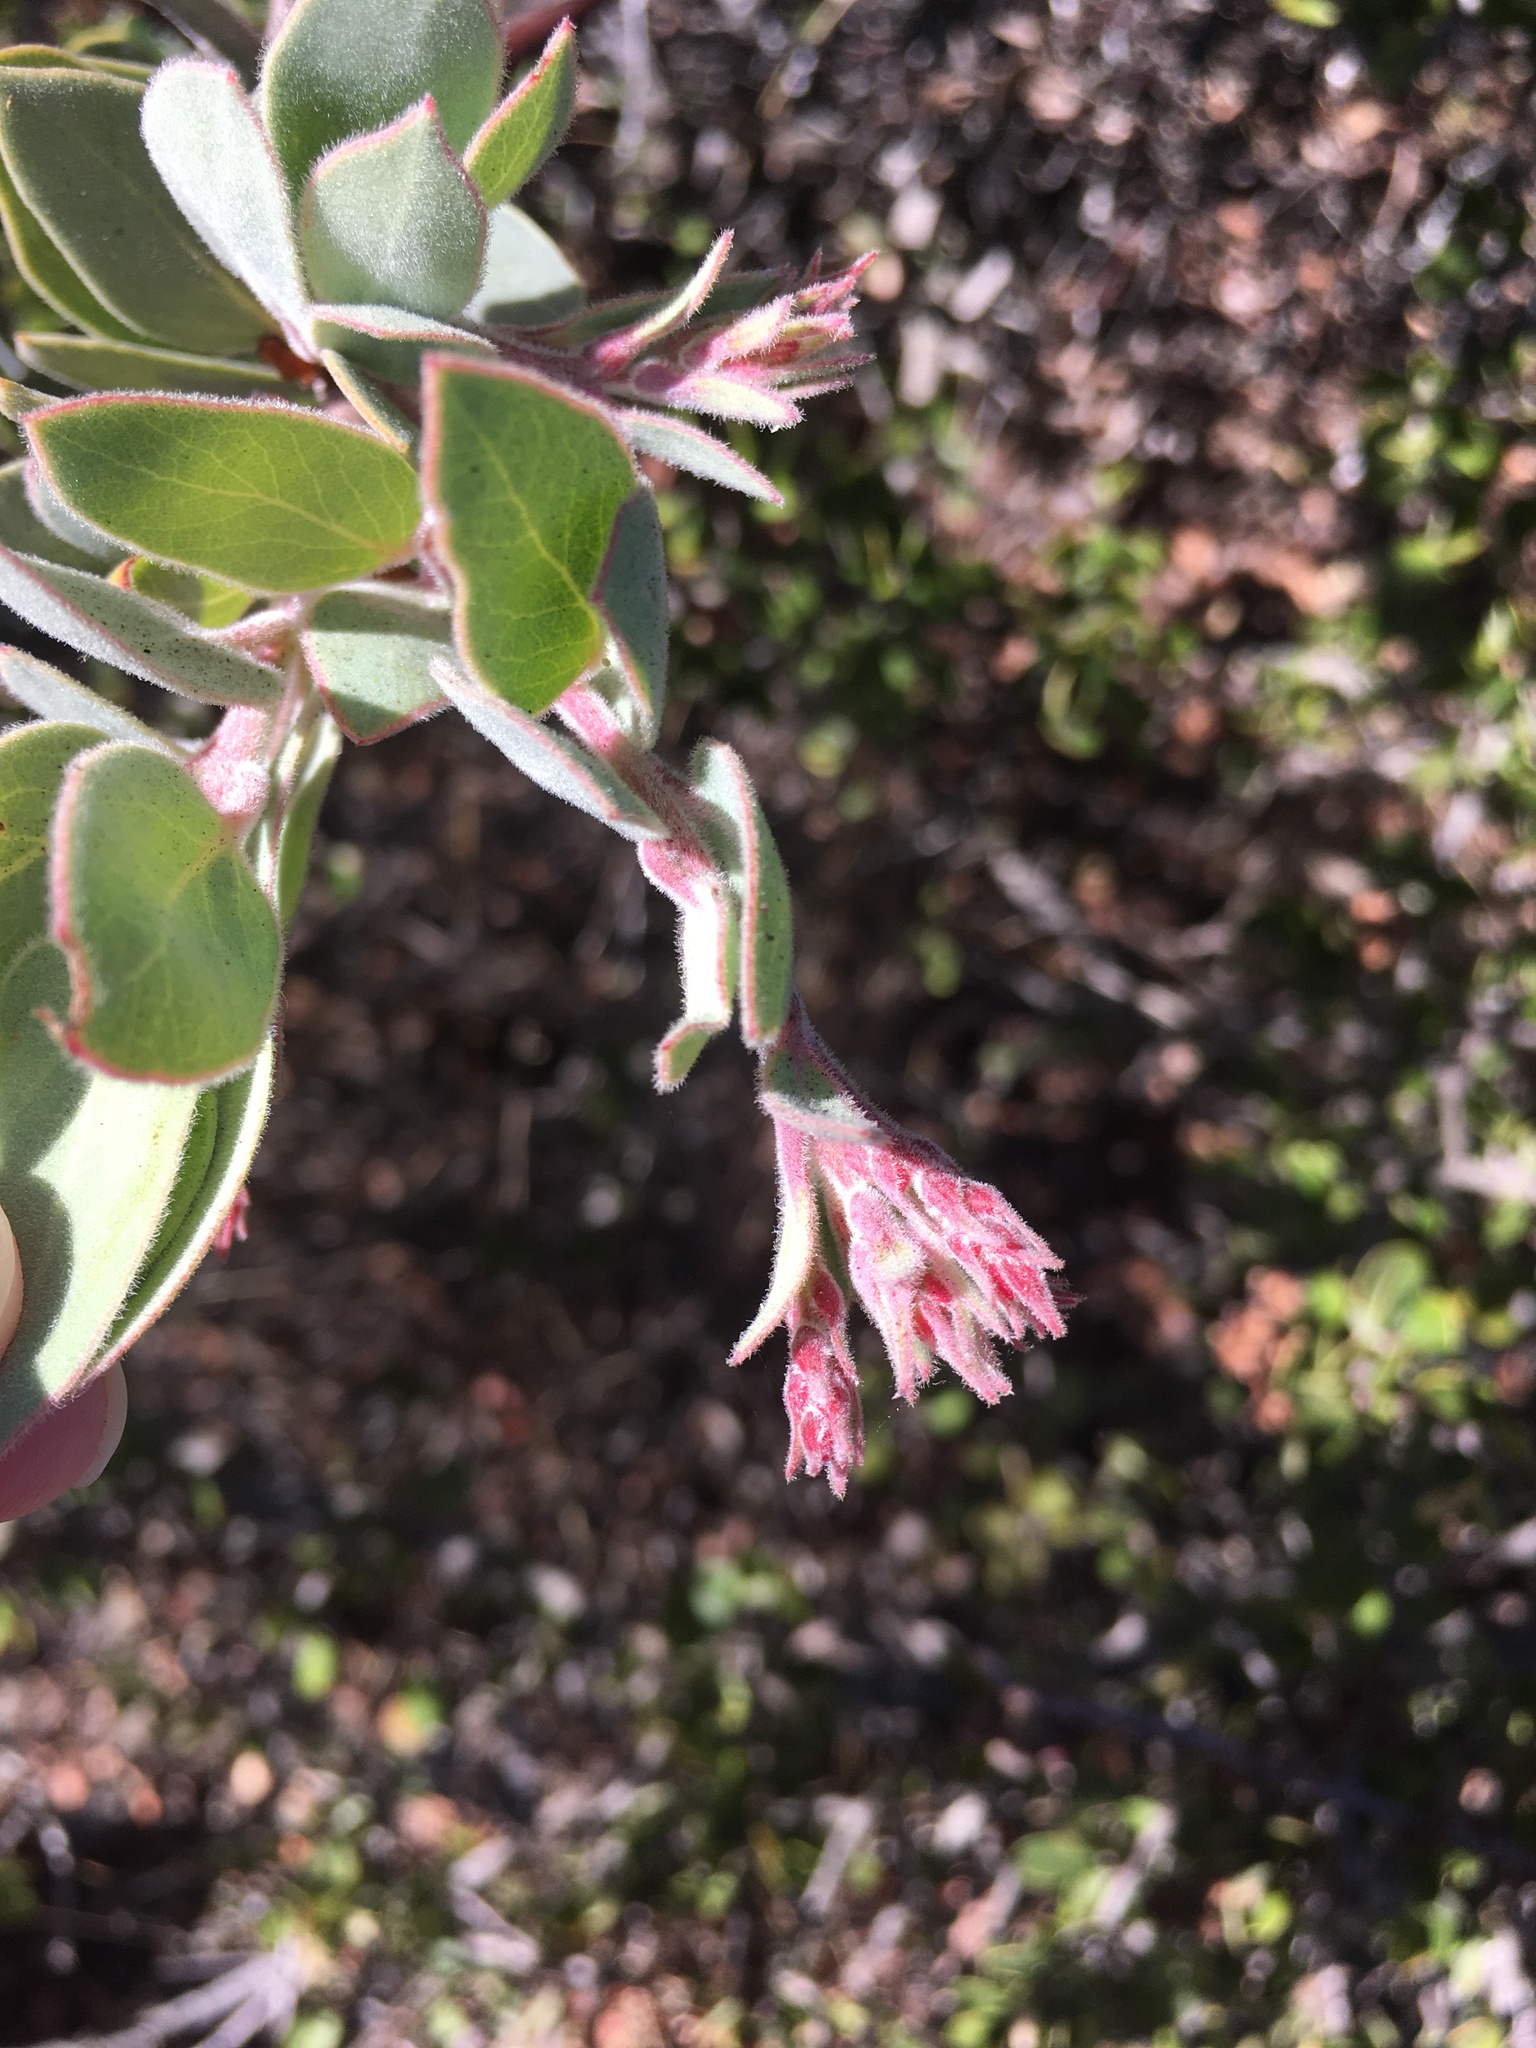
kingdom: Plantae
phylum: Tracheophyta
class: Magnoliopsida
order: Ericales
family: Ericaceae
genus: Arctostaphylos
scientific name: Arctostaphylos obispoensis
